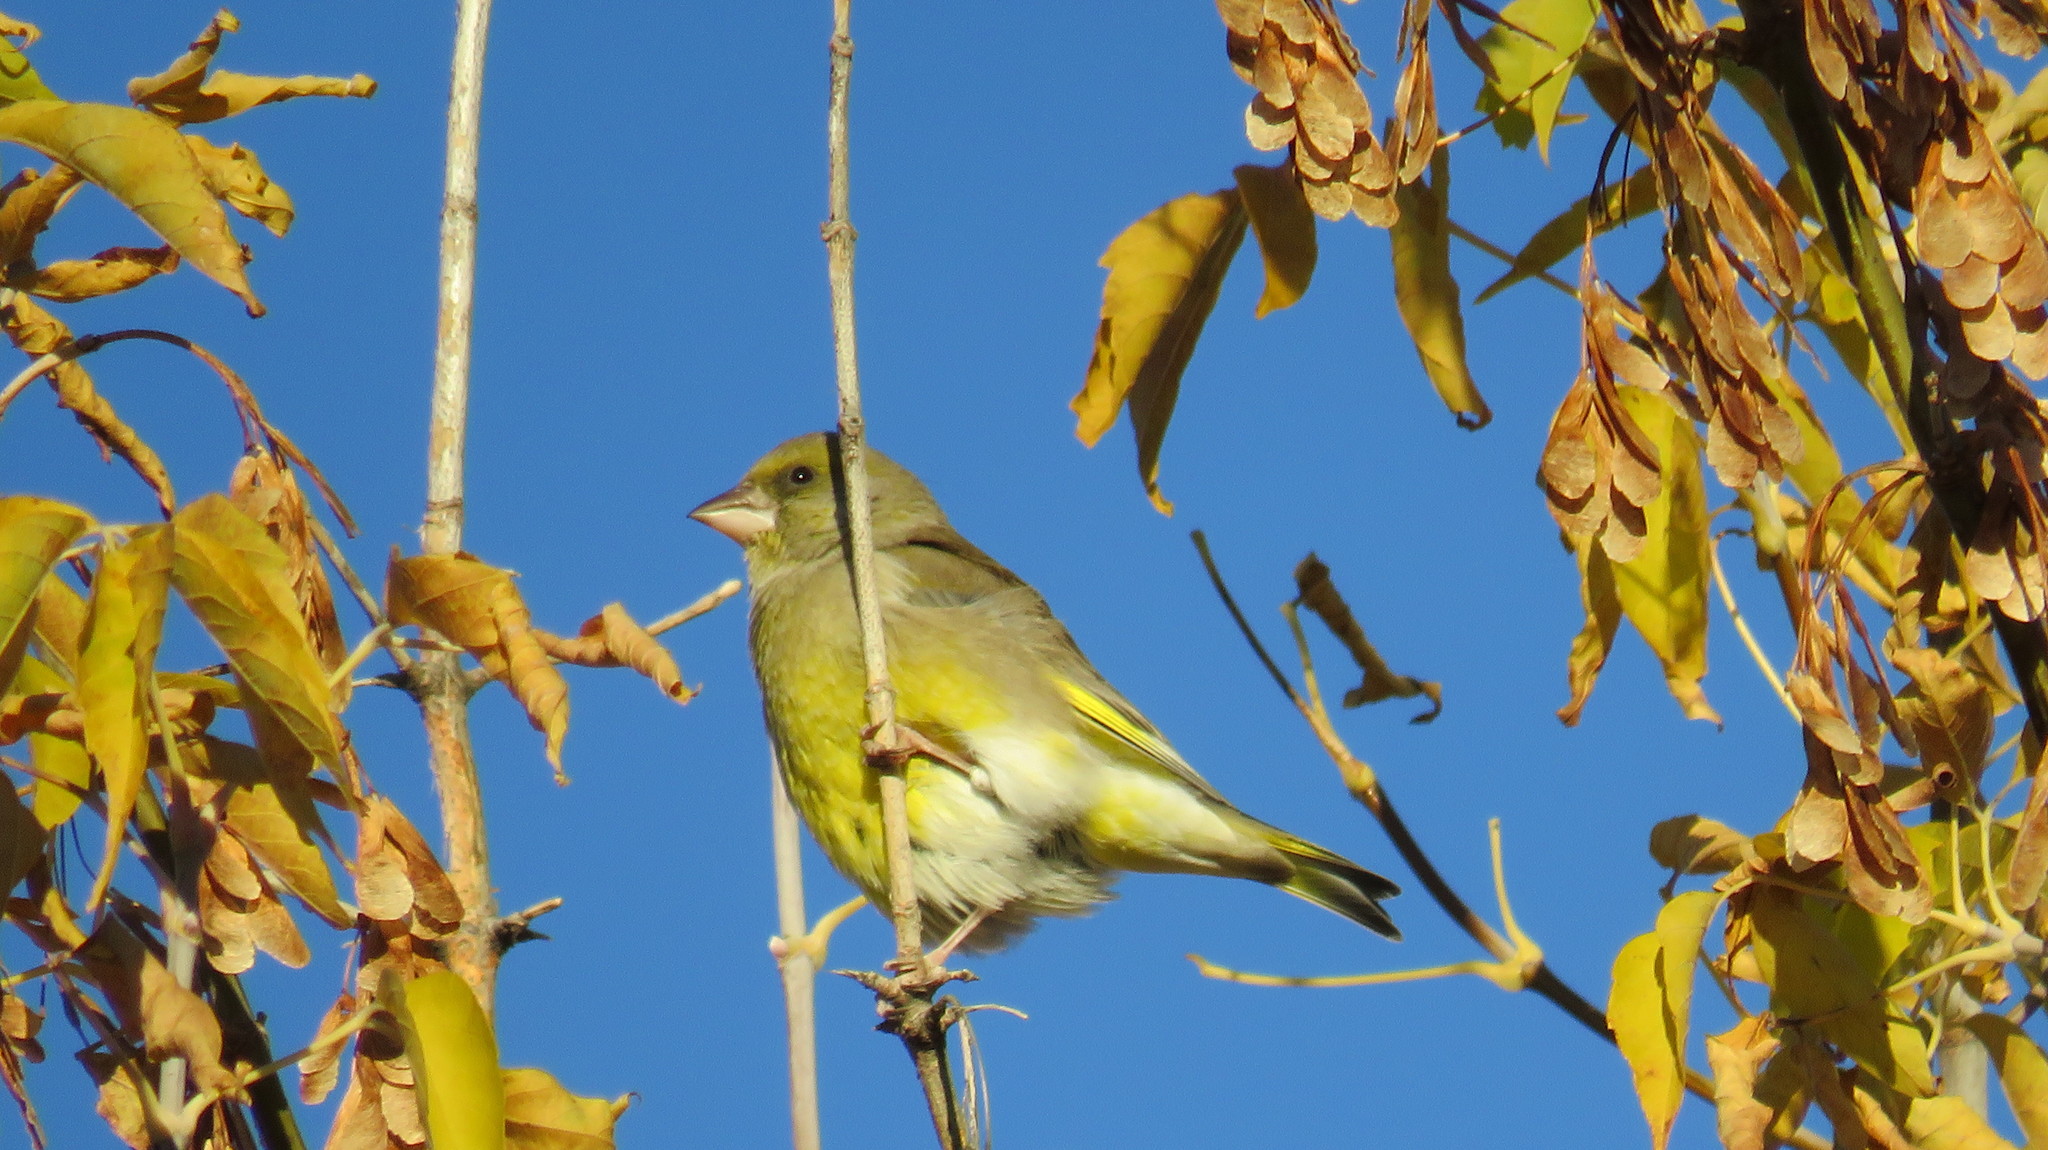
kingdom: Plantae
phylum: Tracheophyta
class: Liliopsida
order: Poales
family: Poaceae
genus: Chloris
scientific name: Chloris chloris
